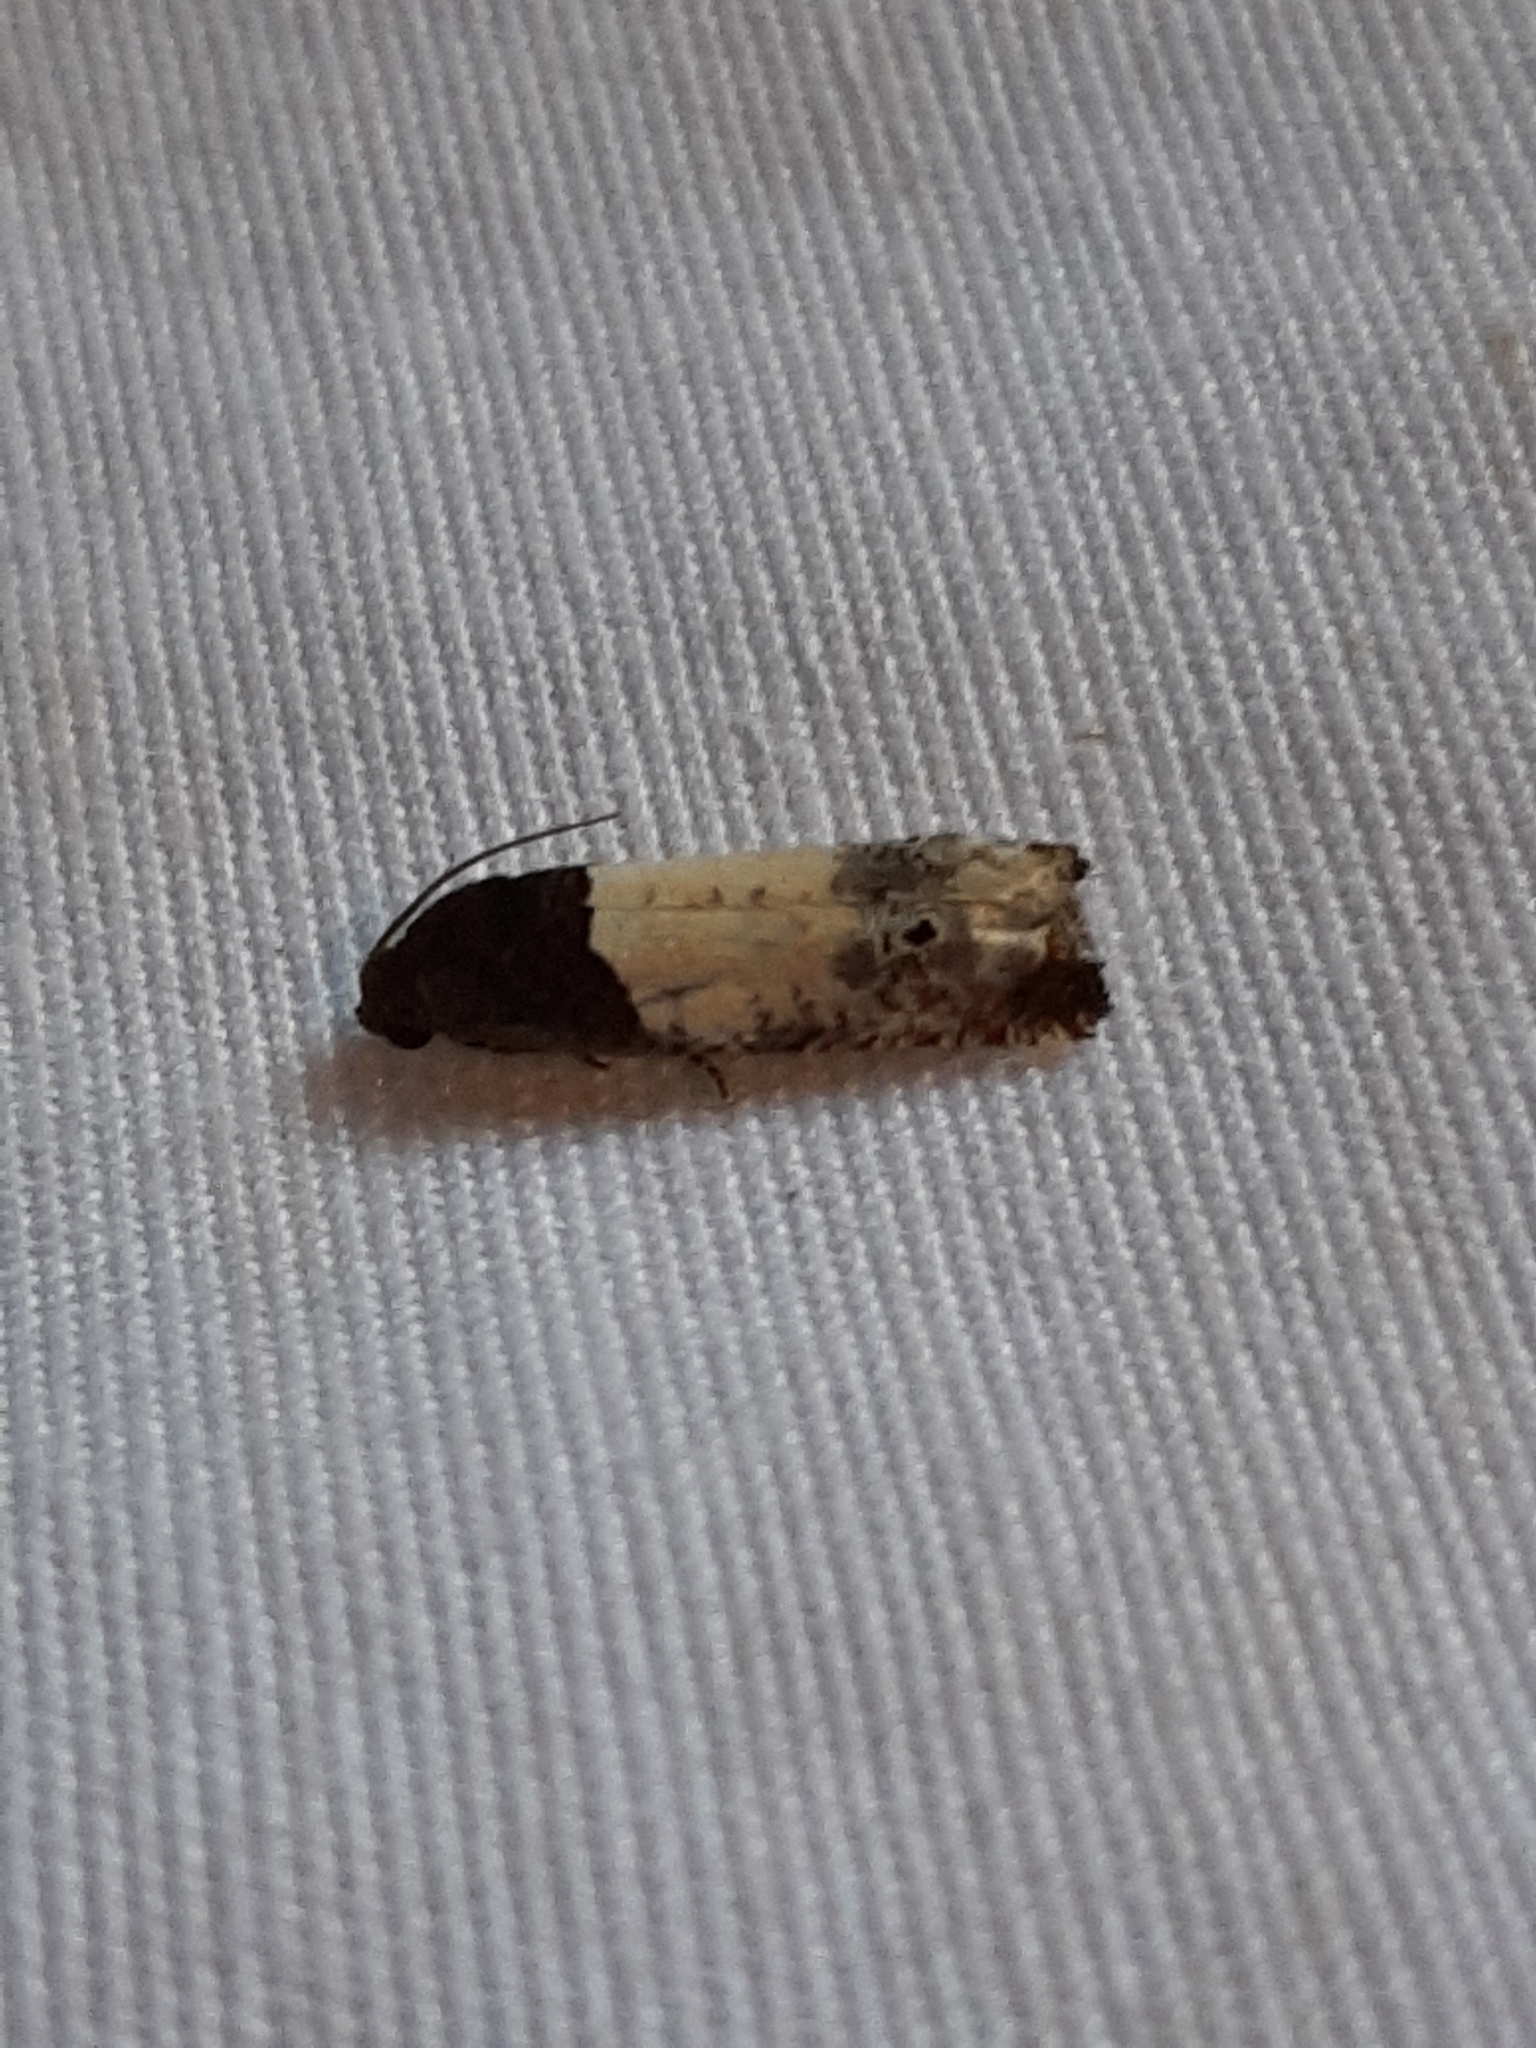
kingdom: Animalia
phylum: Arthropoda
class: Insecta
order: Lepidoptera
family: Tortricidae
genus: Epiblema
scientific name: Epiblema scudderiana
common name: Goldenrod gall moth
